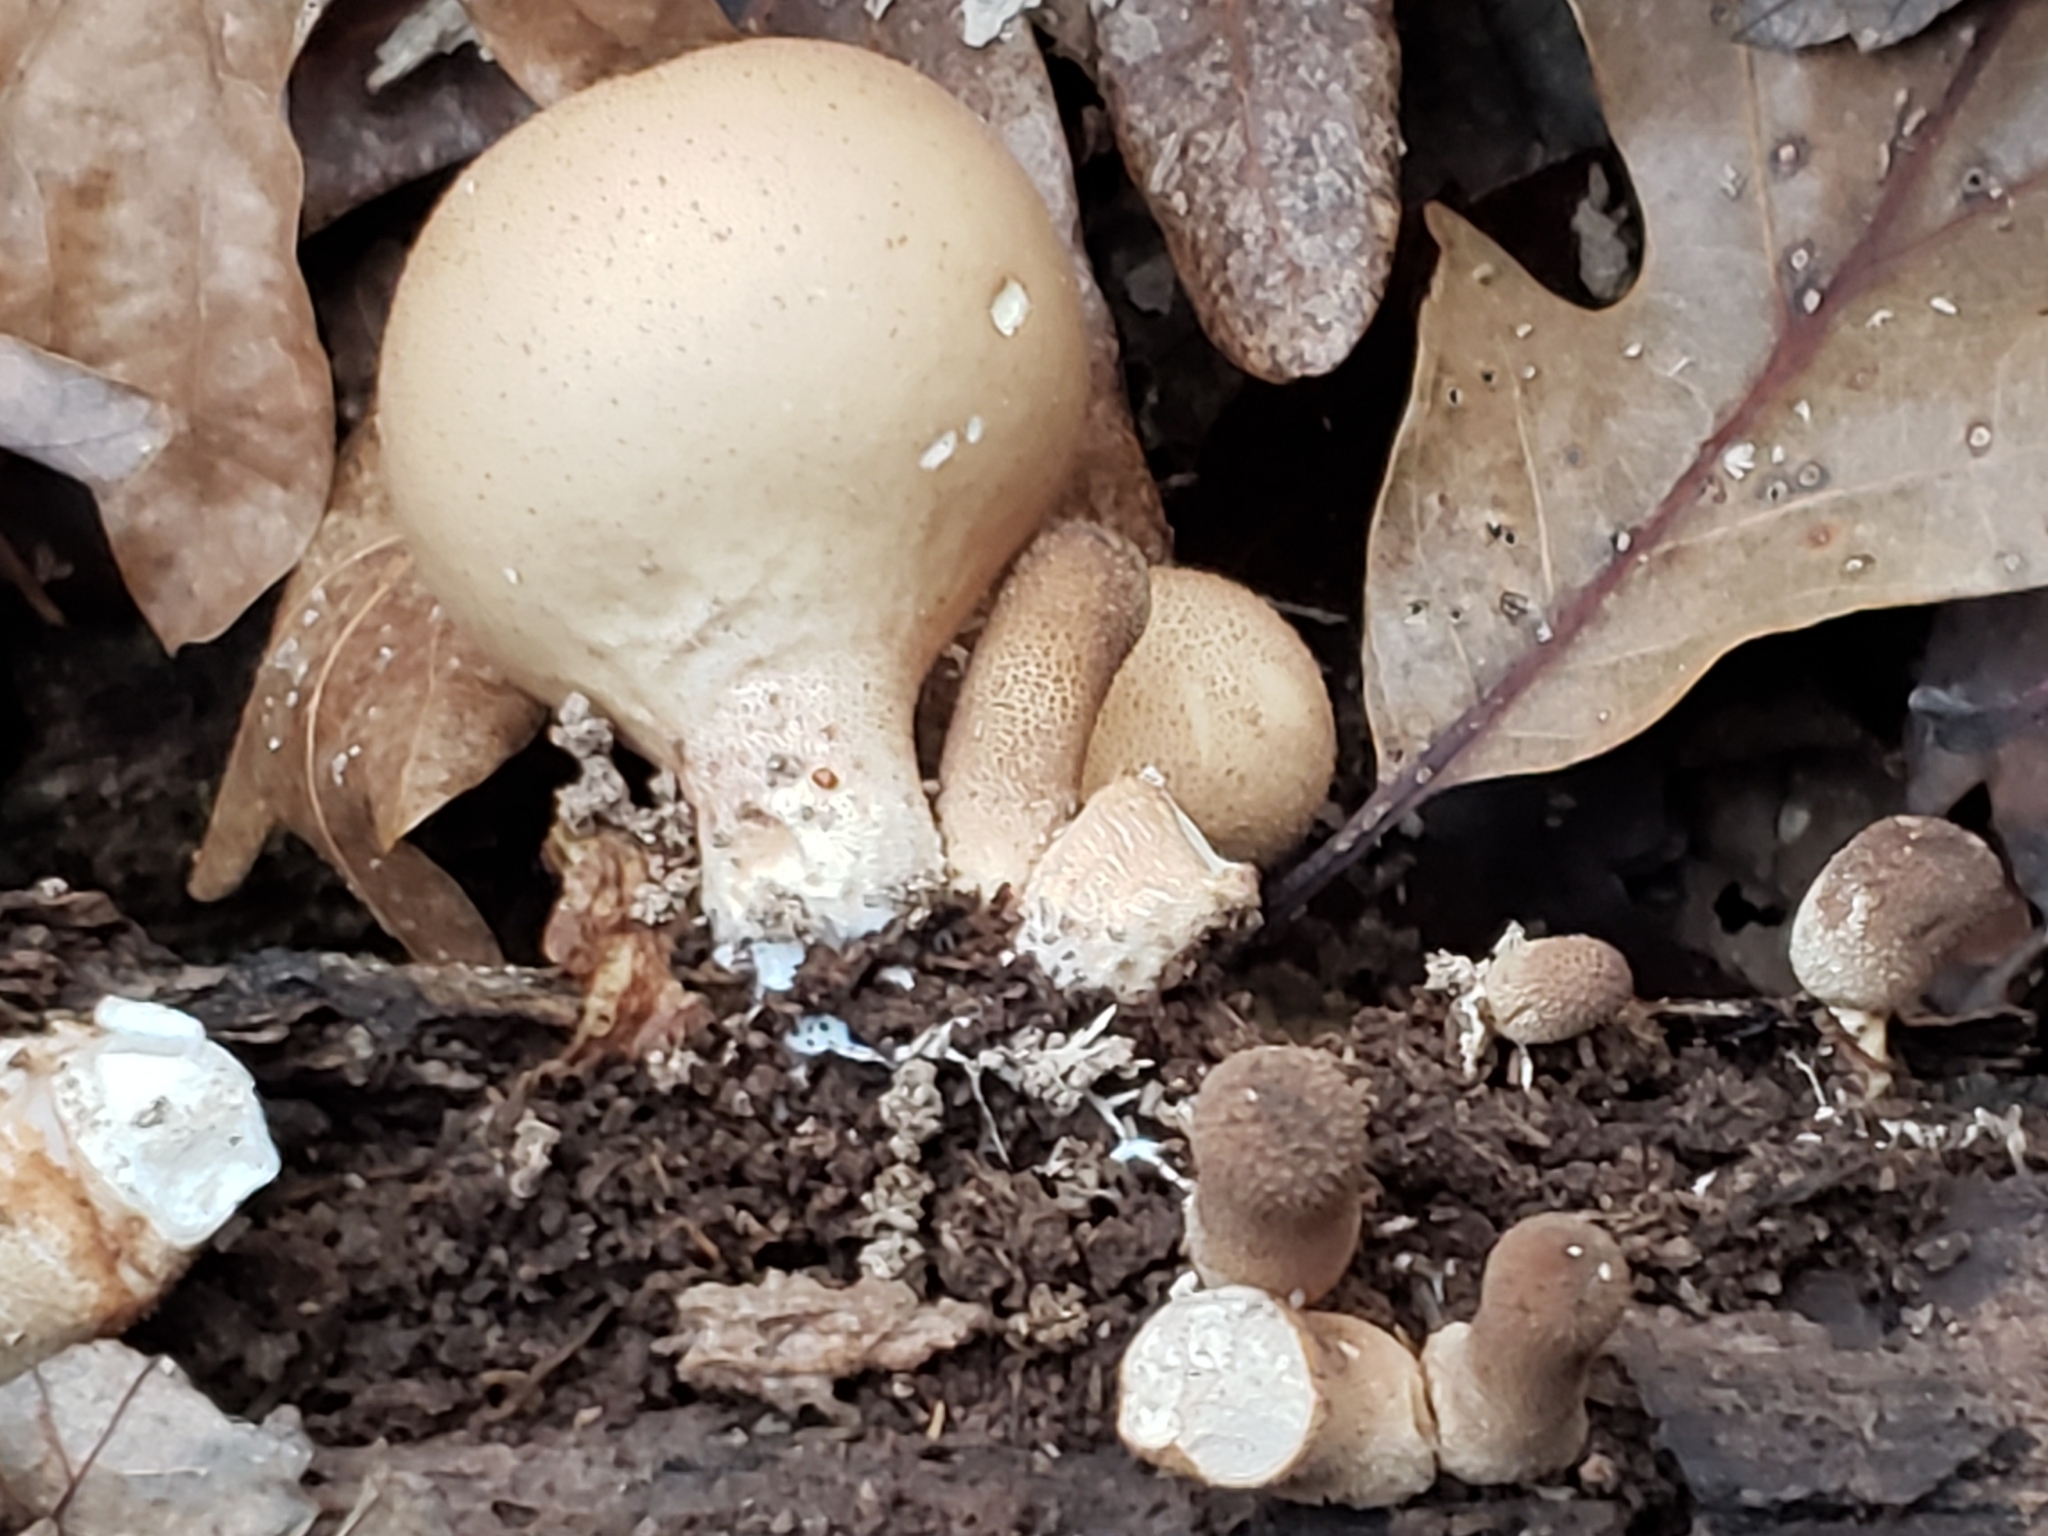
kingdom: Fungi
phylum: Basidiomycota
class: Agaricomycetes
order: Agaricales
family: Lycoperdaceae
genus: Apioperdon
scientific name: Apioperdon pyriforme
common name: Pear-shaped puffball
